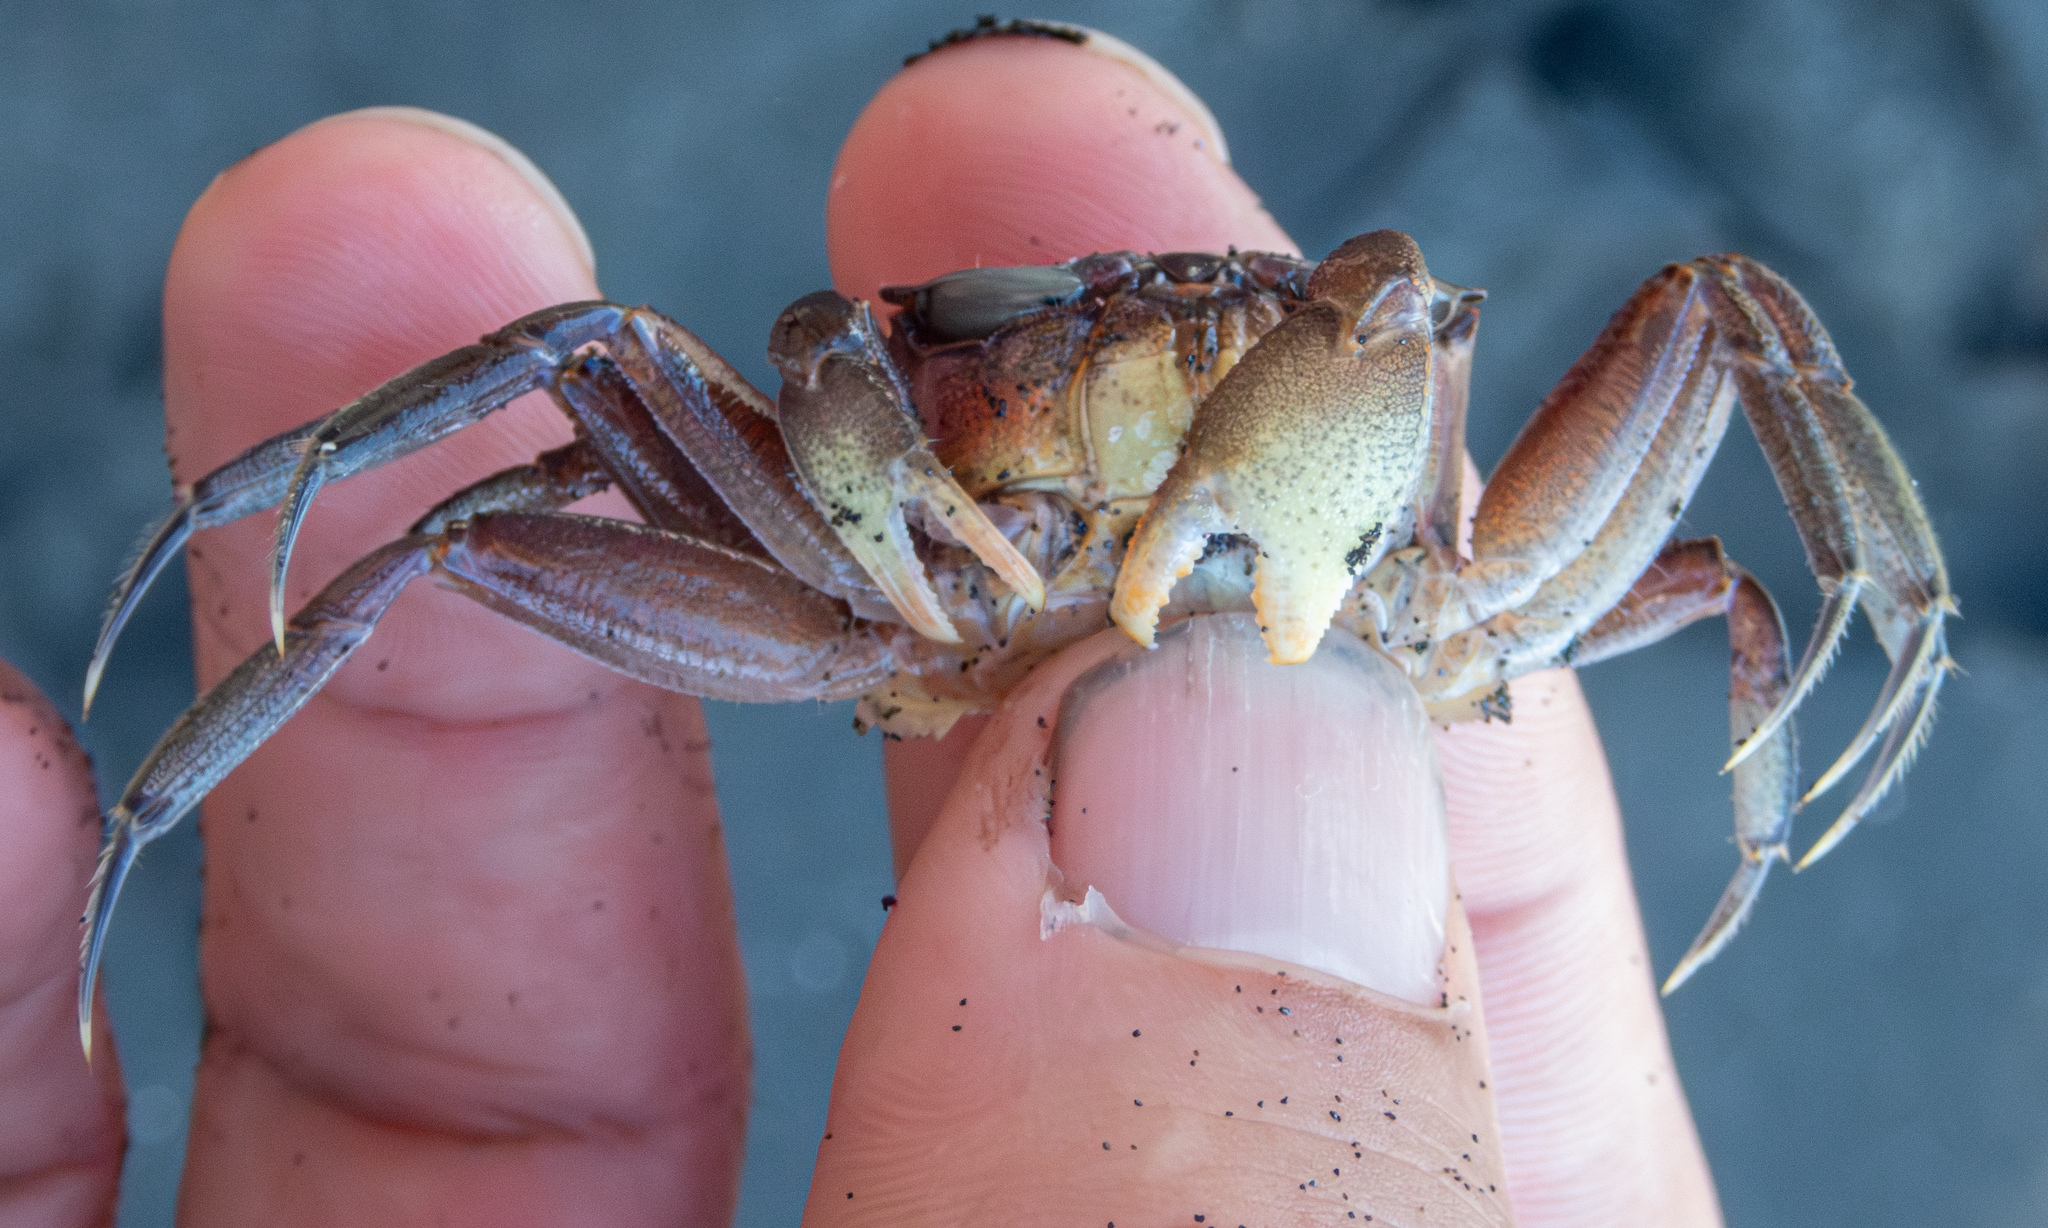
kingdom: Animalia
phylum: Arthropoda
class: Malacostraca
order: Decapoda
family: Ocypodidae
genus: Ocypode
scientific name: Ocypode gaudichaudii
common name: Pacific ghost crab
